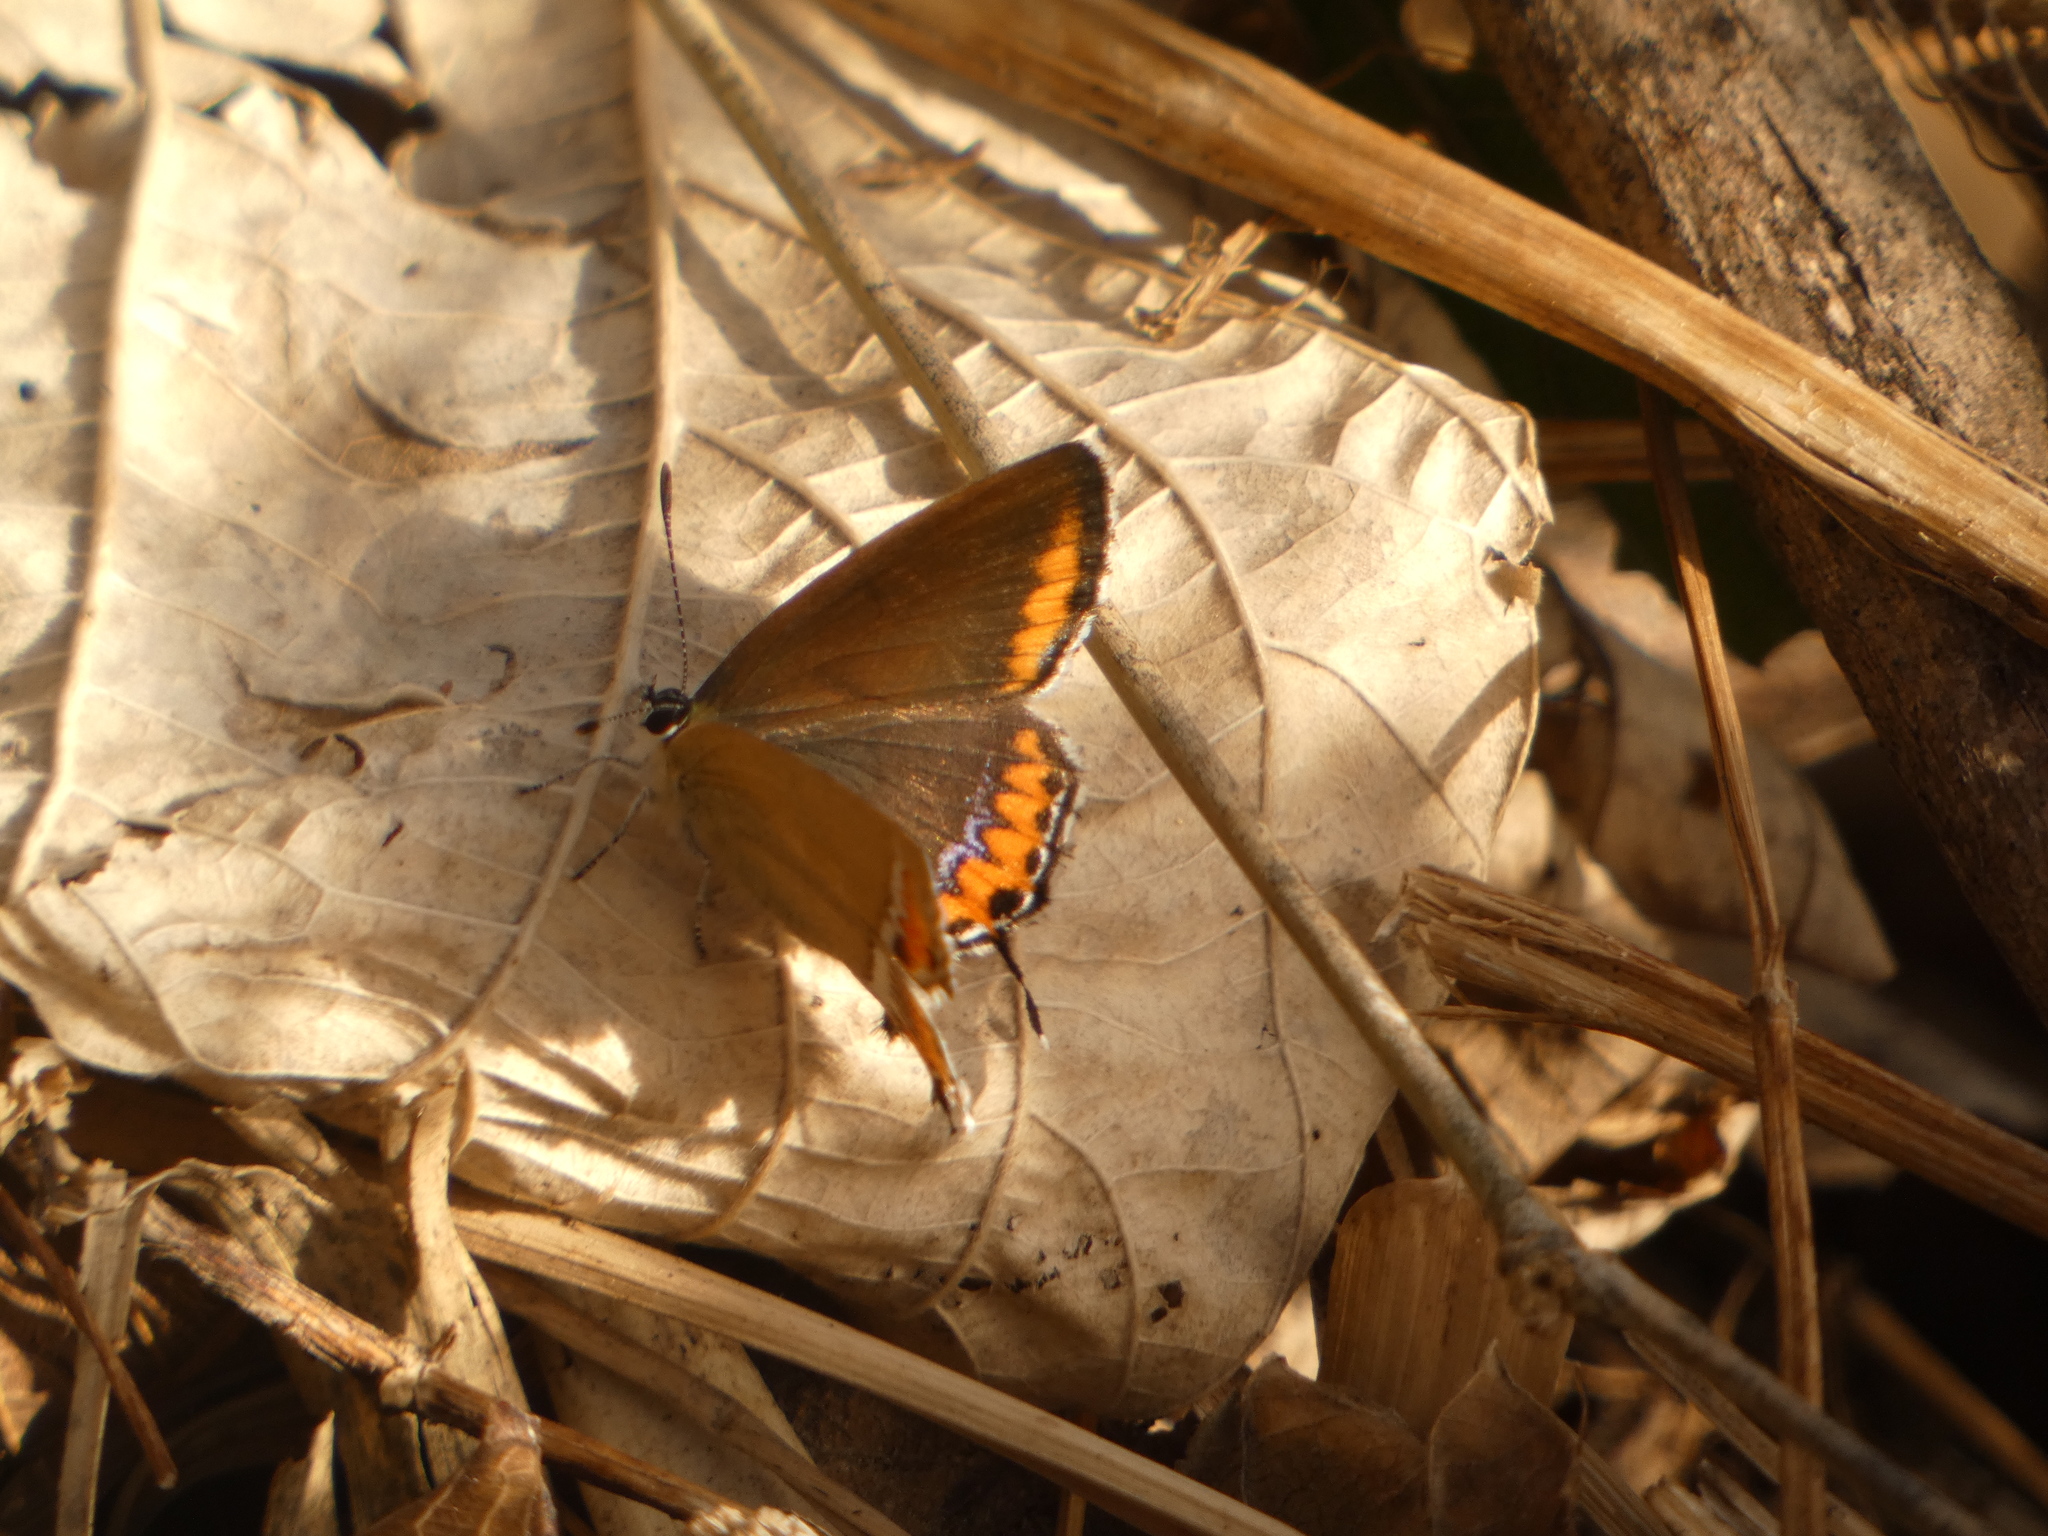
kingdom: Animalia
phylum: Arthropoda
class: Insecta
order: Lepidoptera
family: Lycaenidae
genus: Heliophorus
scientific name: Heliophorus sena
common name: Sorrel sapphire
